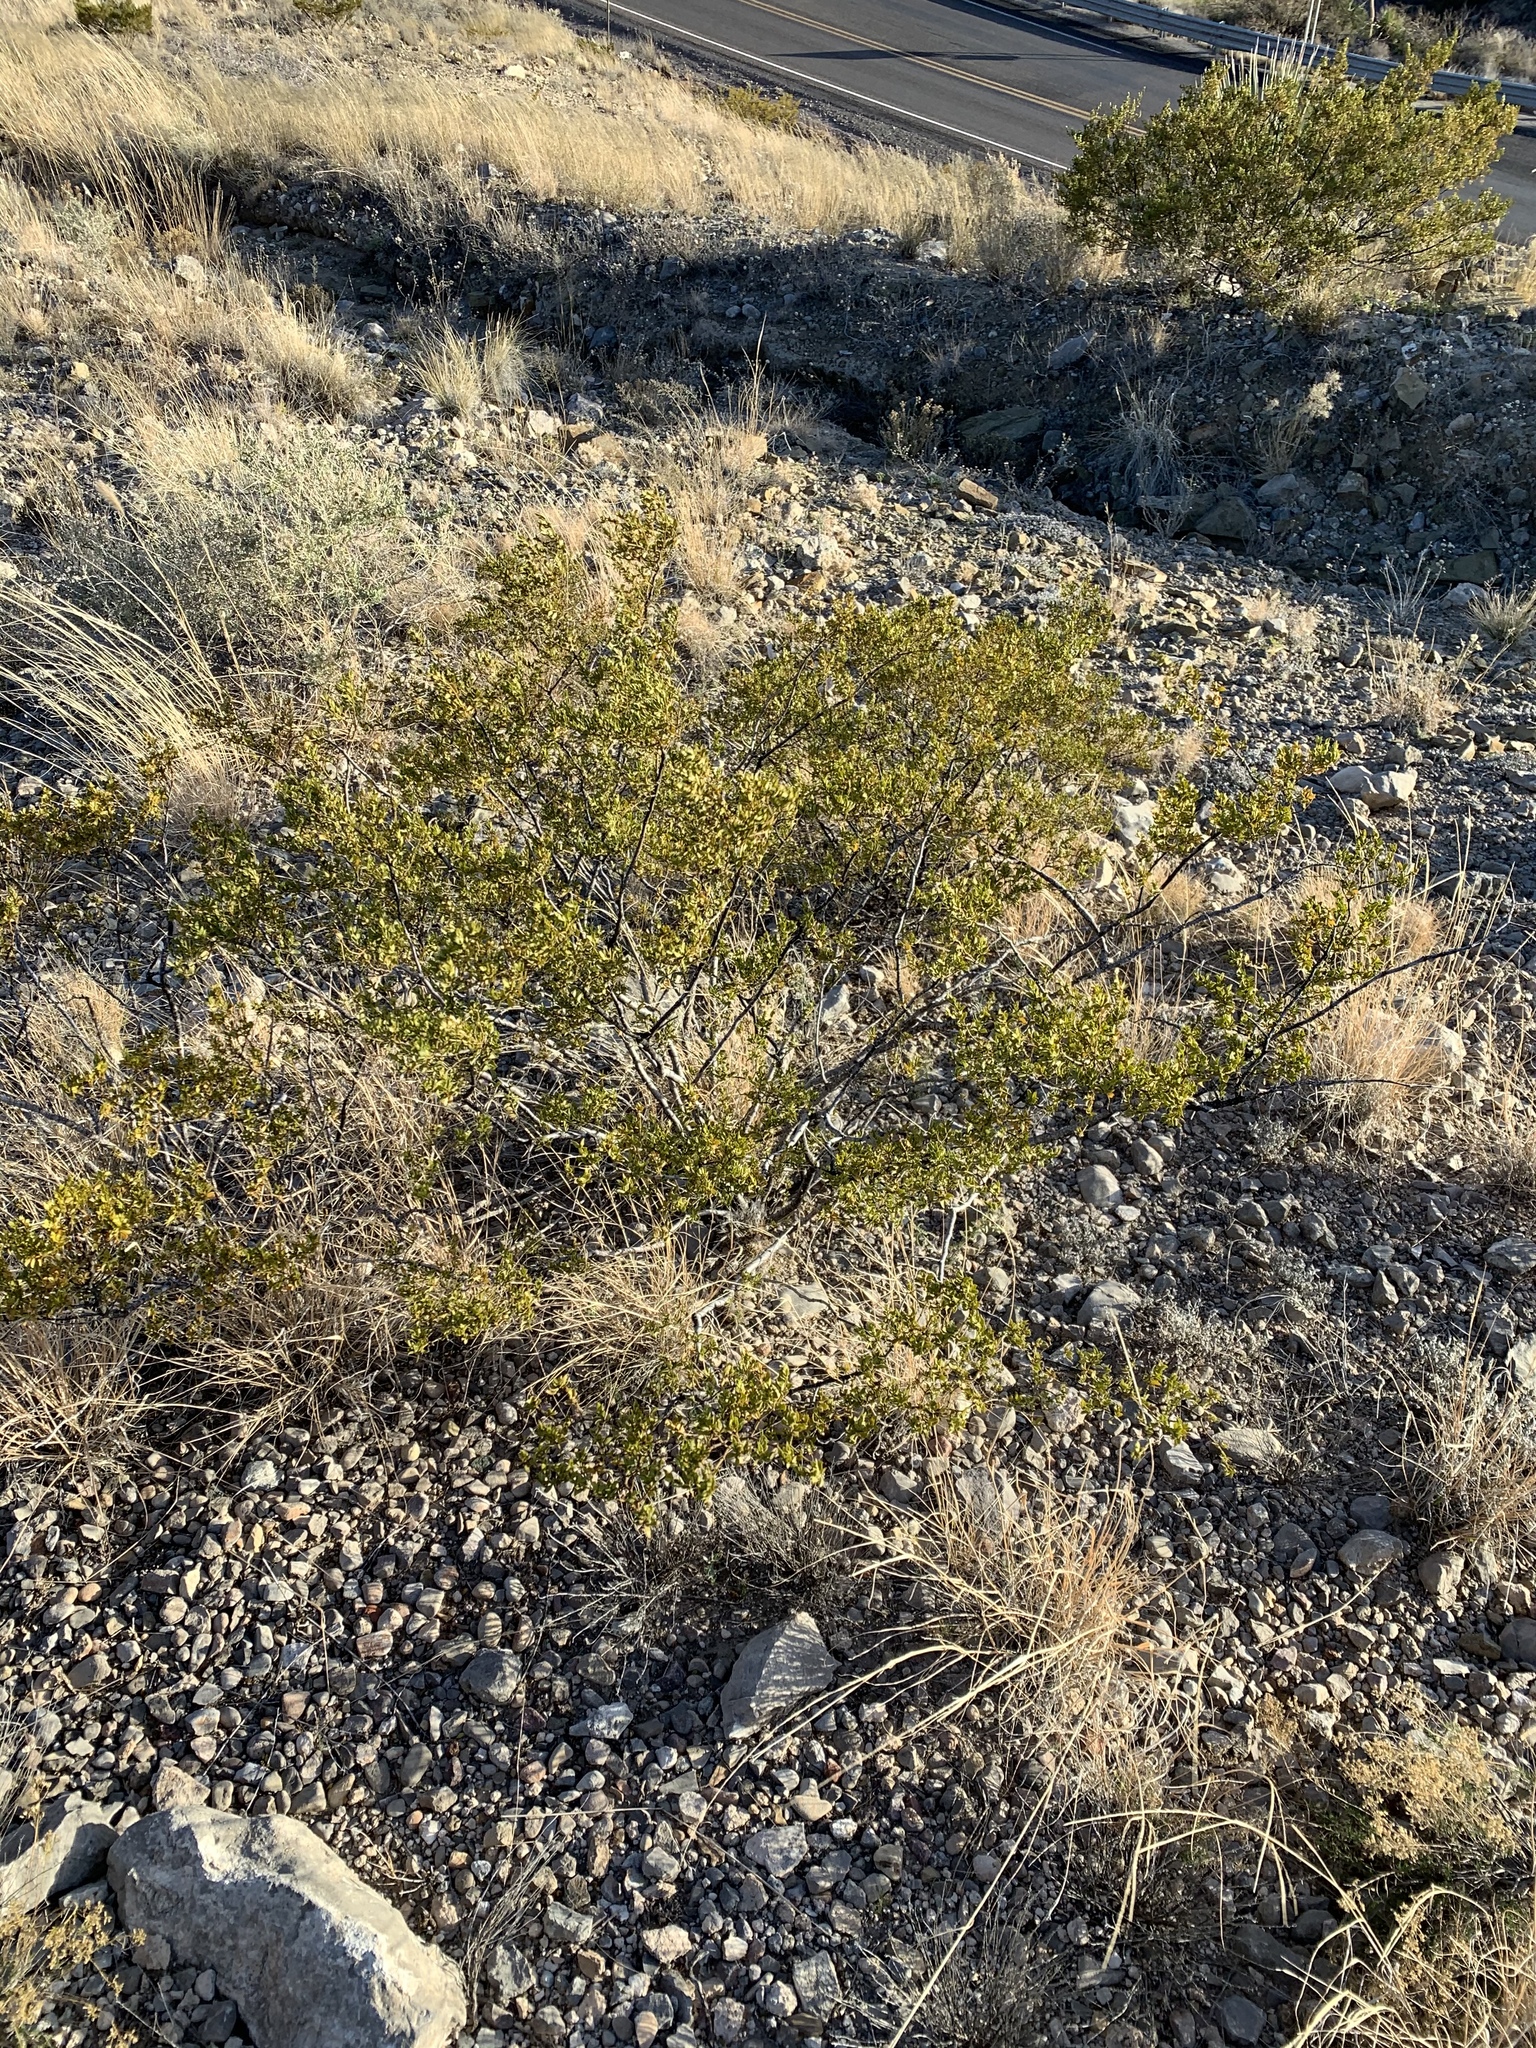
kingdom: Plantae
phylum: Tracheophyta
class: Magnoliopsida
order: Zygophyllales
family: Zygophyllaceae
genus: Larrea
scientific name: Larrea tridentata
